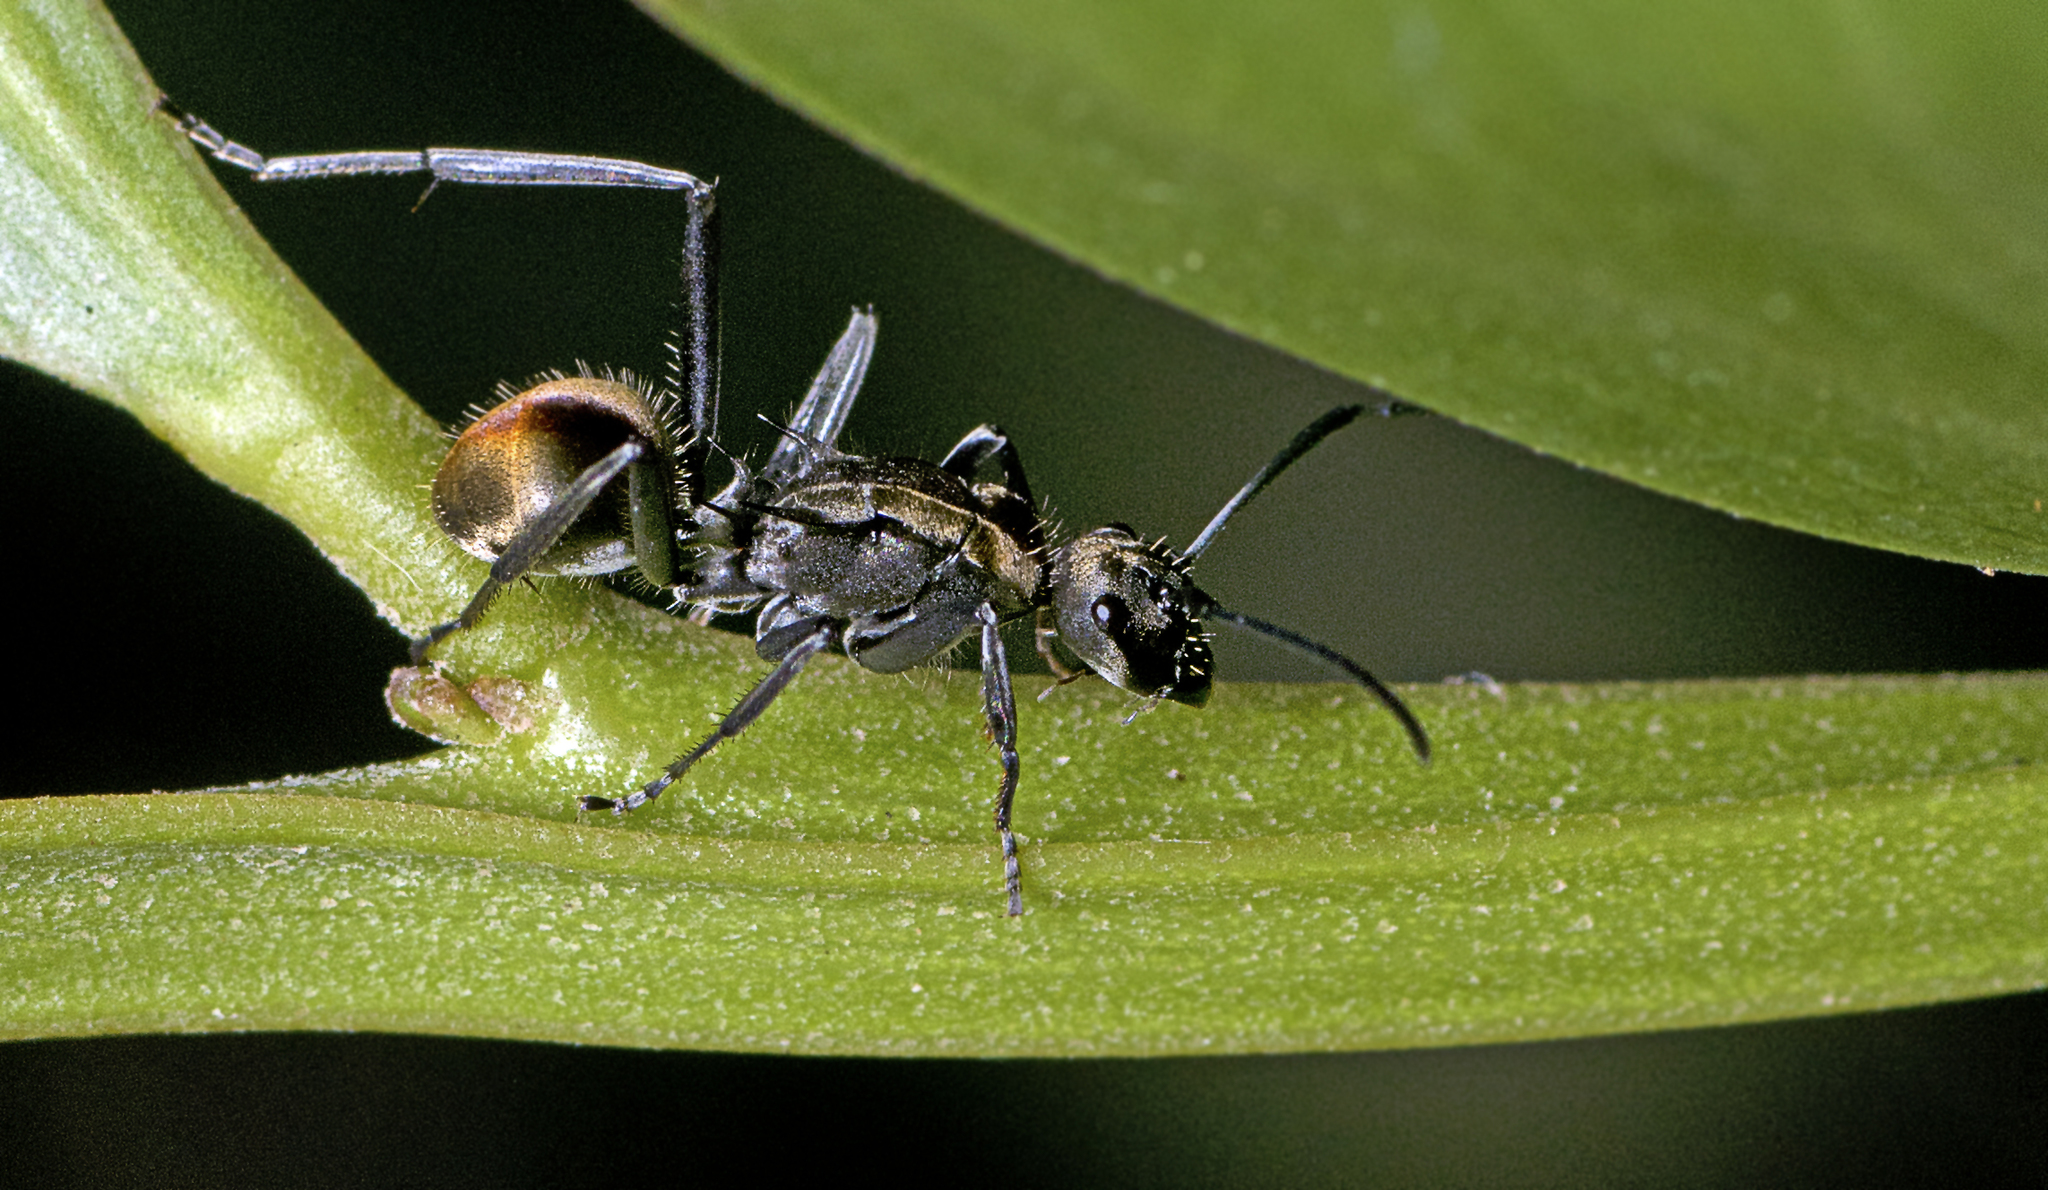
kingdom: Animalia
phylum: Arthropoda
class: Insecta
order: Hymenoptera
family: Formicidae
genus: Polyrhachis
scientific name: Polyrhachis
